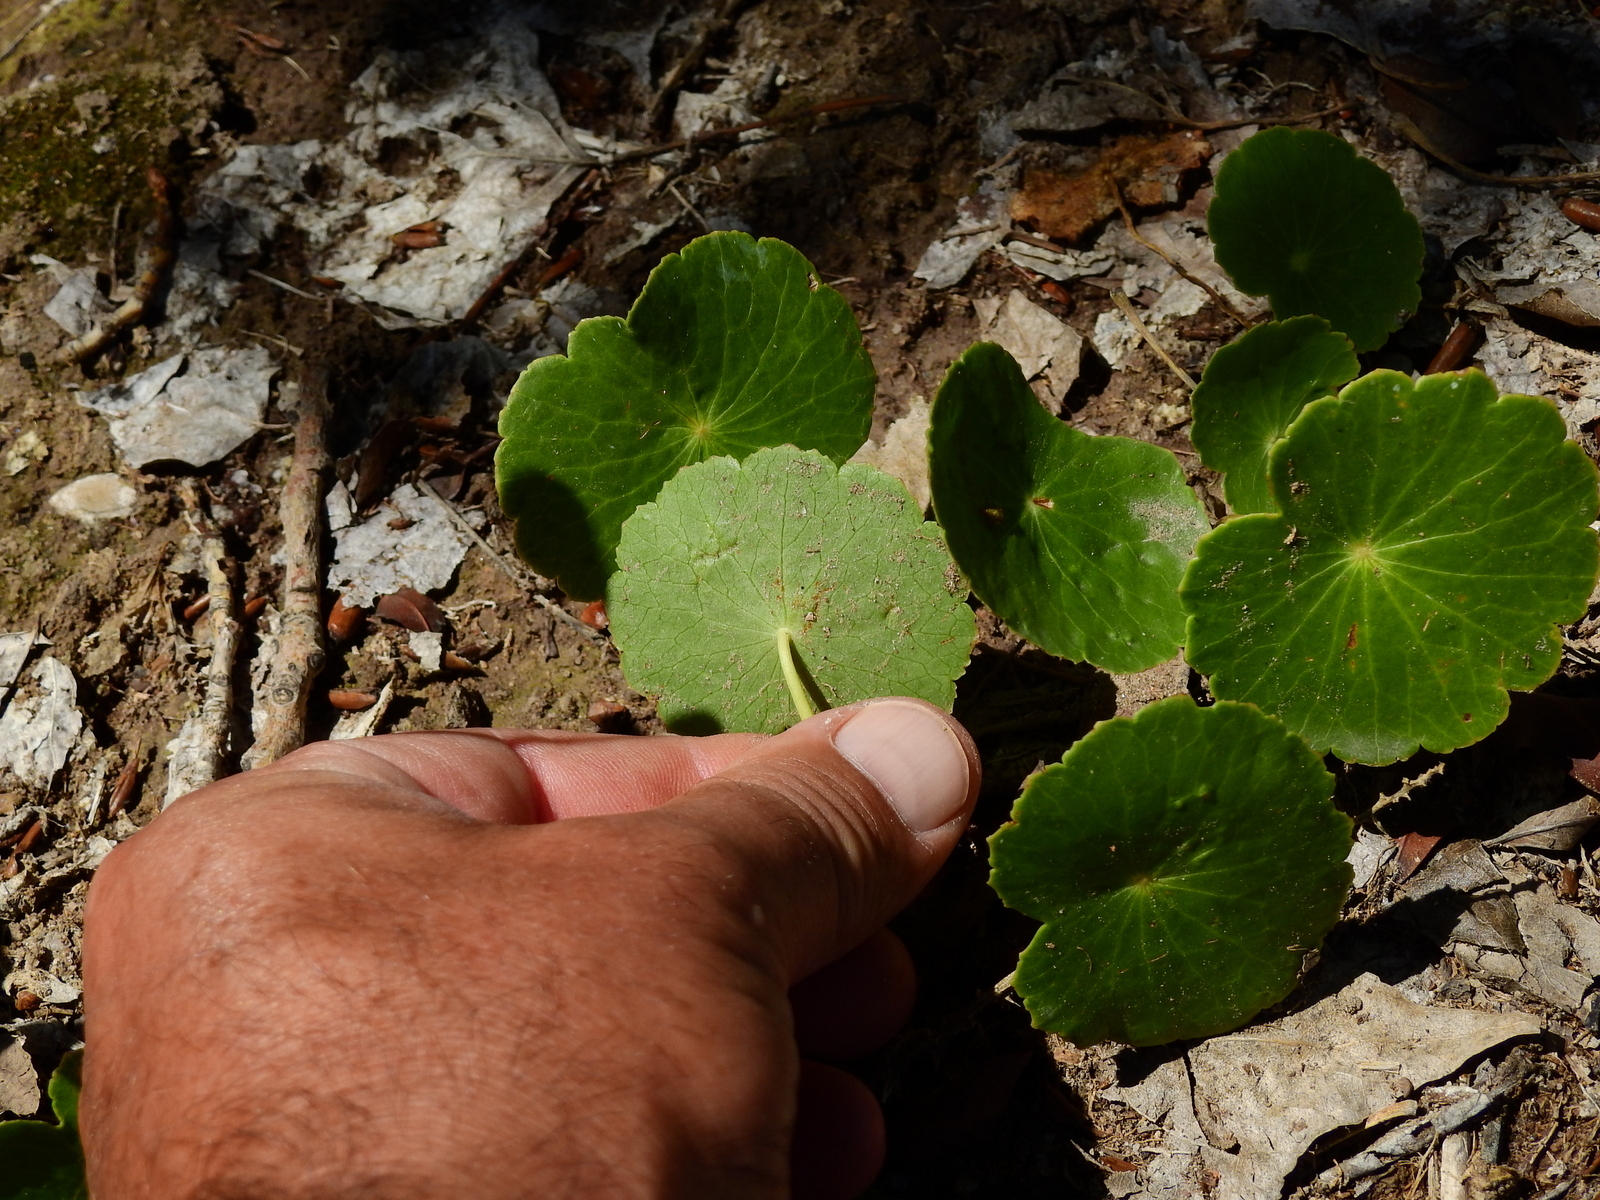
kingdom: Plantae
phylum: Tracheophyta
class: Magnoliopsida
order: Apiales
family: Araliaceae
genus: Hydrocotyle
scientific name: Hydrocotyle bonariensis
